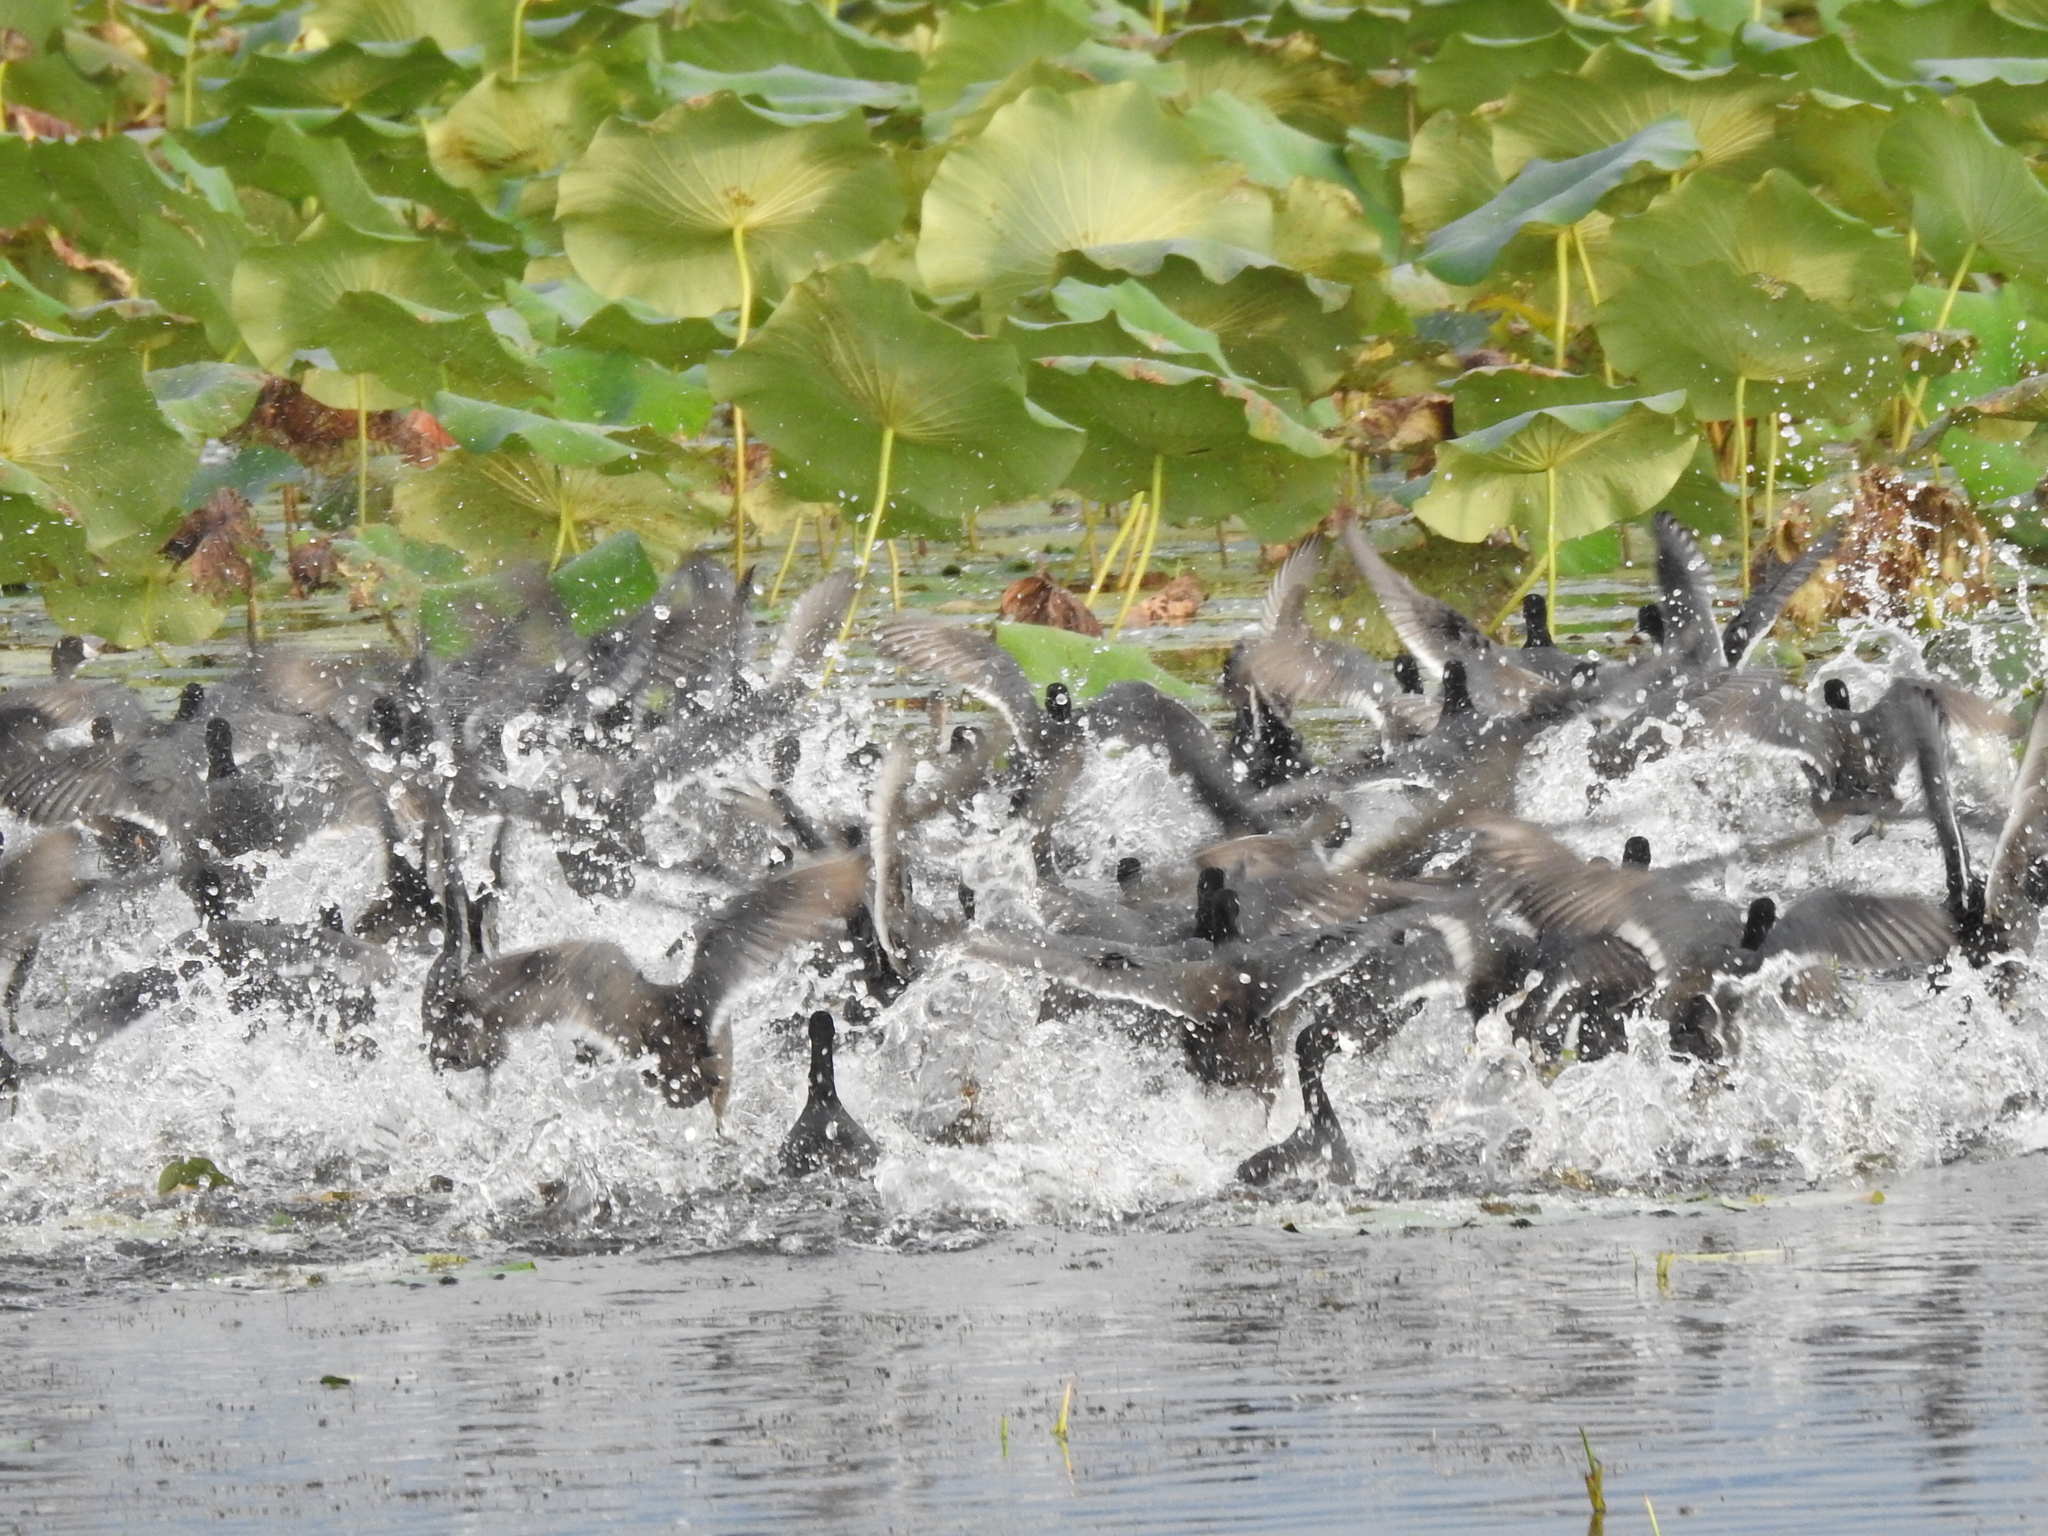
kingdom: Animalia
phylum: Chordata
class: Aves
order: Gruiformes
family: Rallidae
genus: Fulica
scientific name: Fulica americana
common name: American coot
